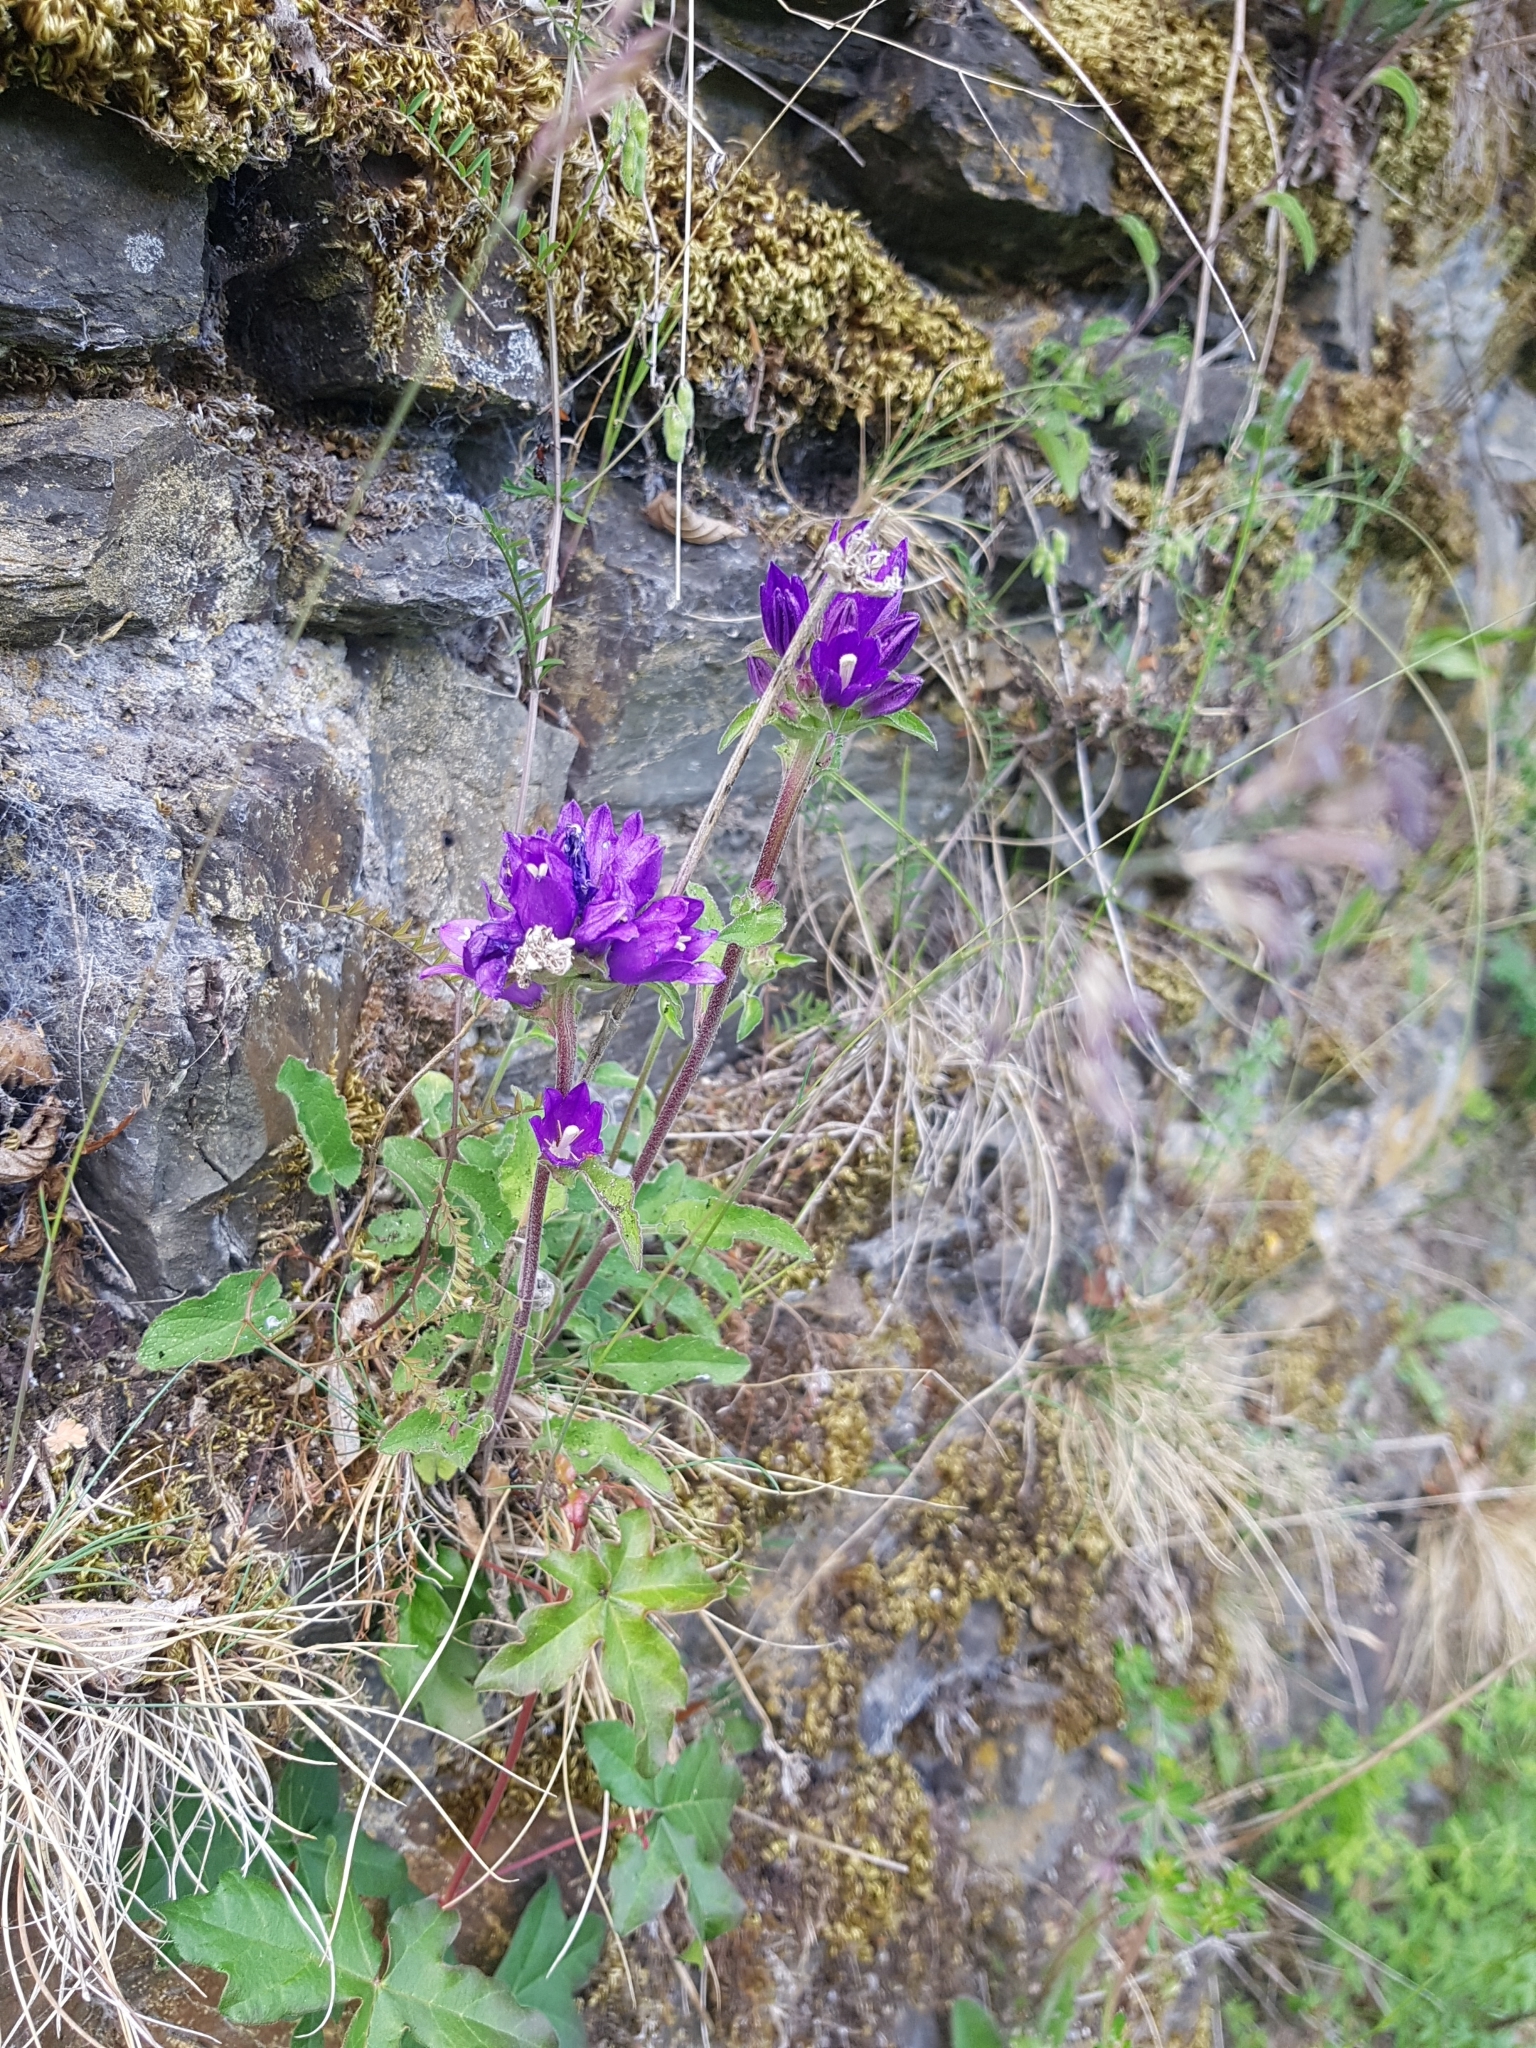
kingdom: Plantae
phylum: Tracheophyta
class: Magnoliopsida
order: Asterales
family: Campanulaceae
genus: Campanula
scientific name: Campanula glomerata
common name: Clustered bellflower
